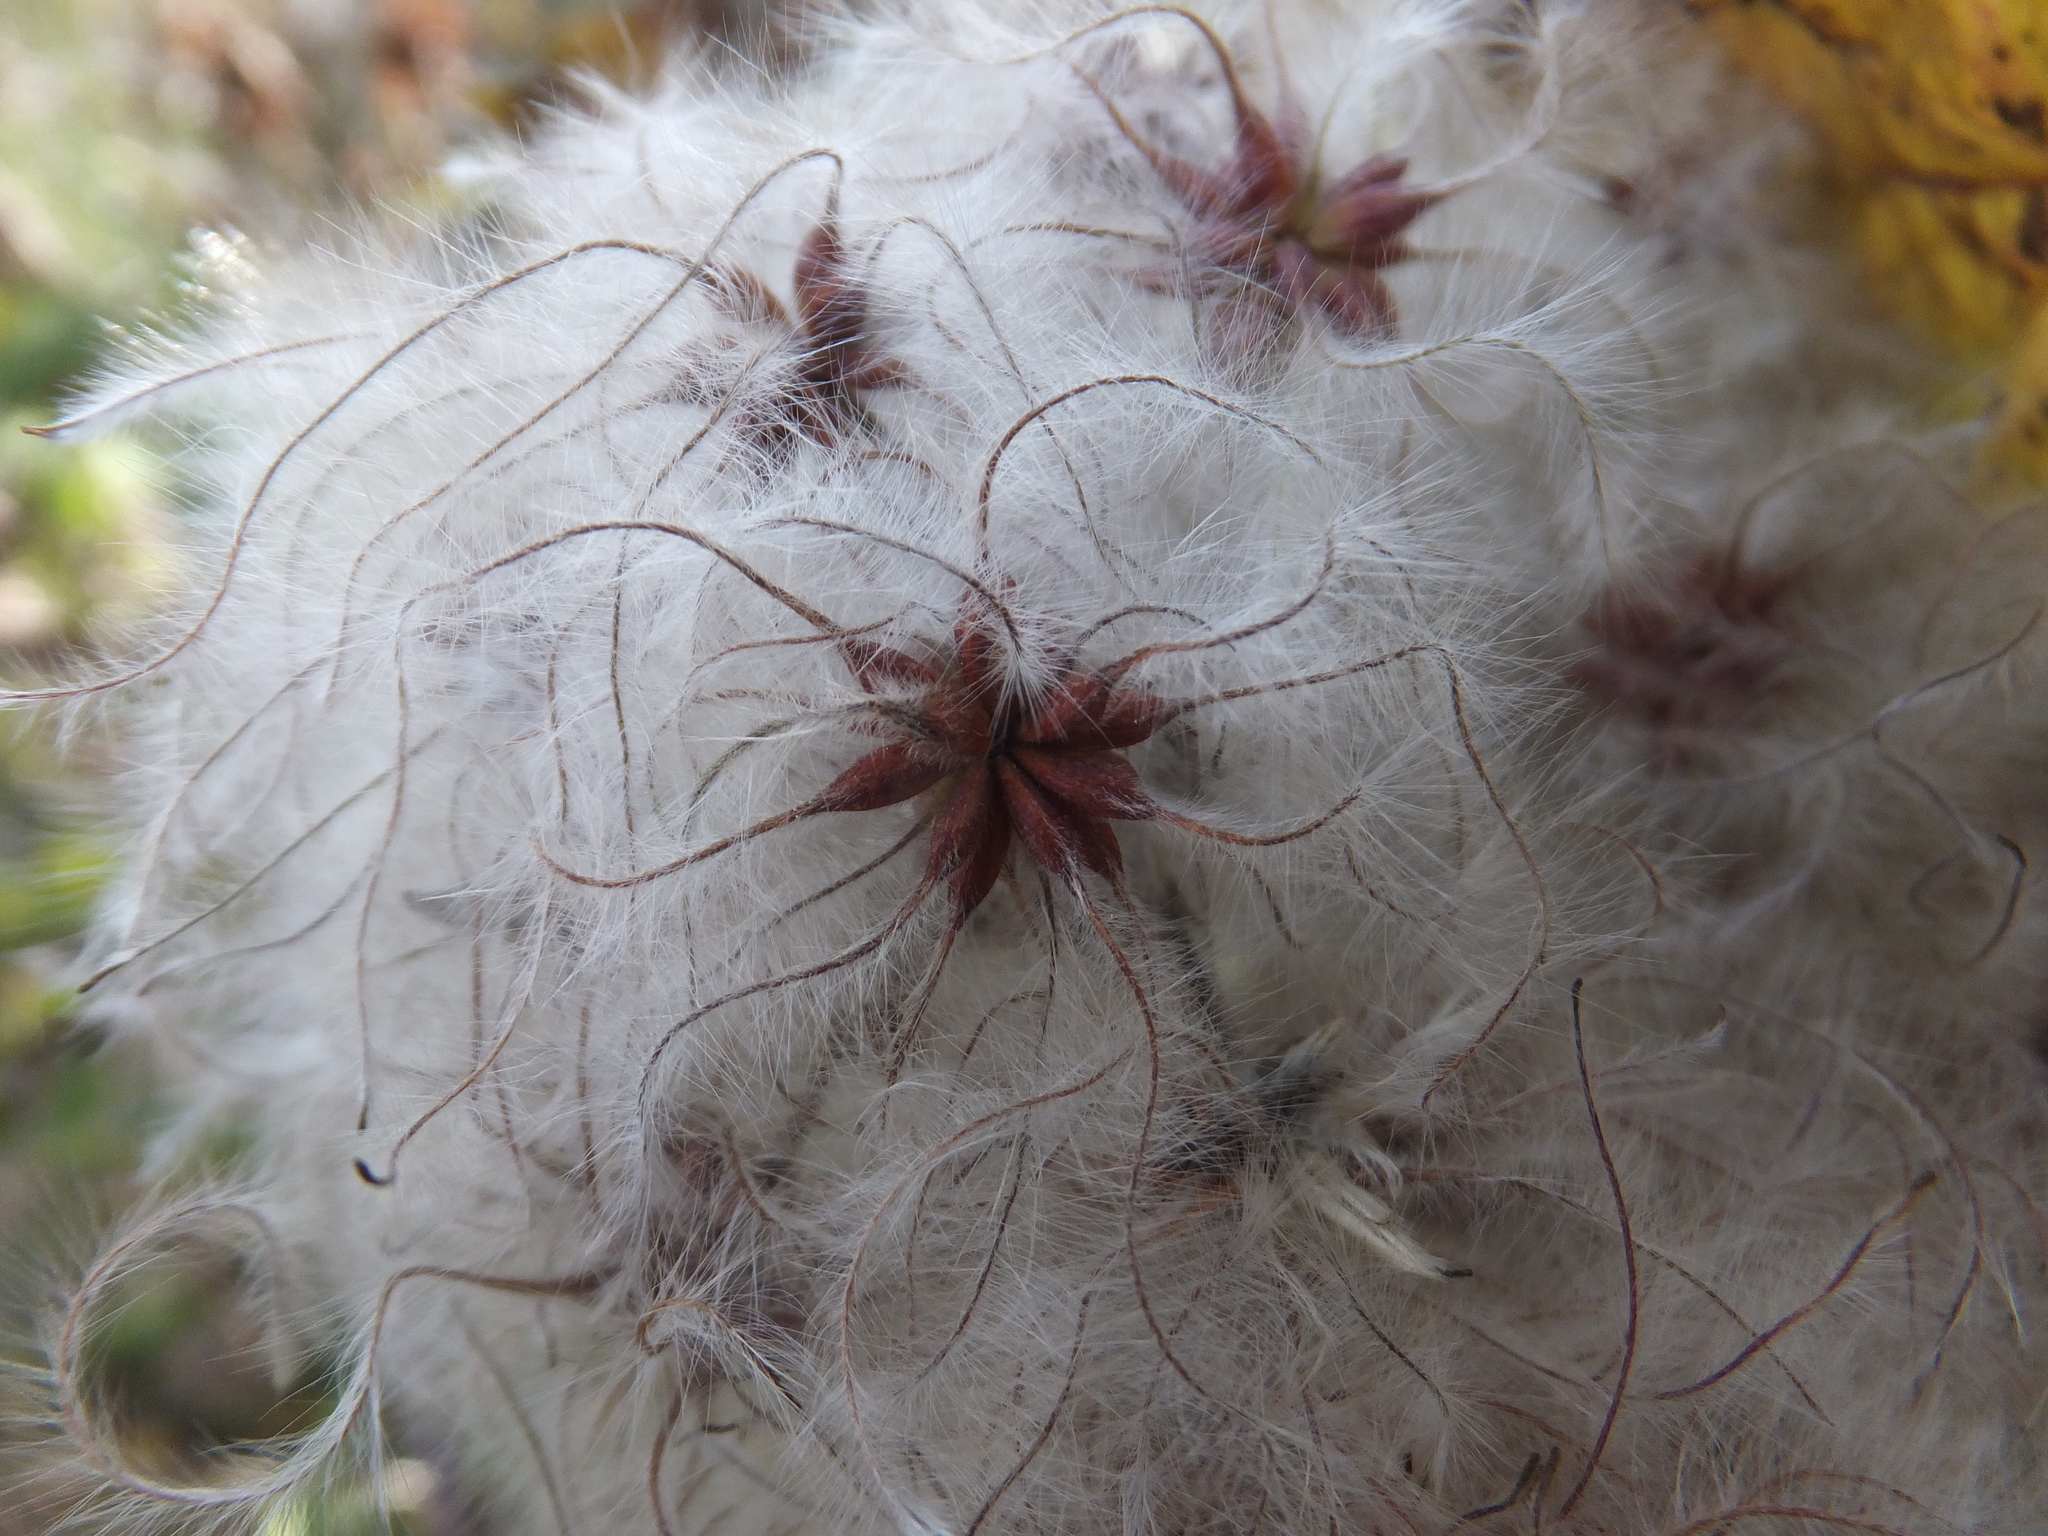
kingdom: Plantae
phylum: Tracheophyta
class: Magnoliopsida
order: Ranunculales
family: Ranunculaceae
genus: Clematis
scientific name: Clematis vitalba
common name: Evergreen clematis
